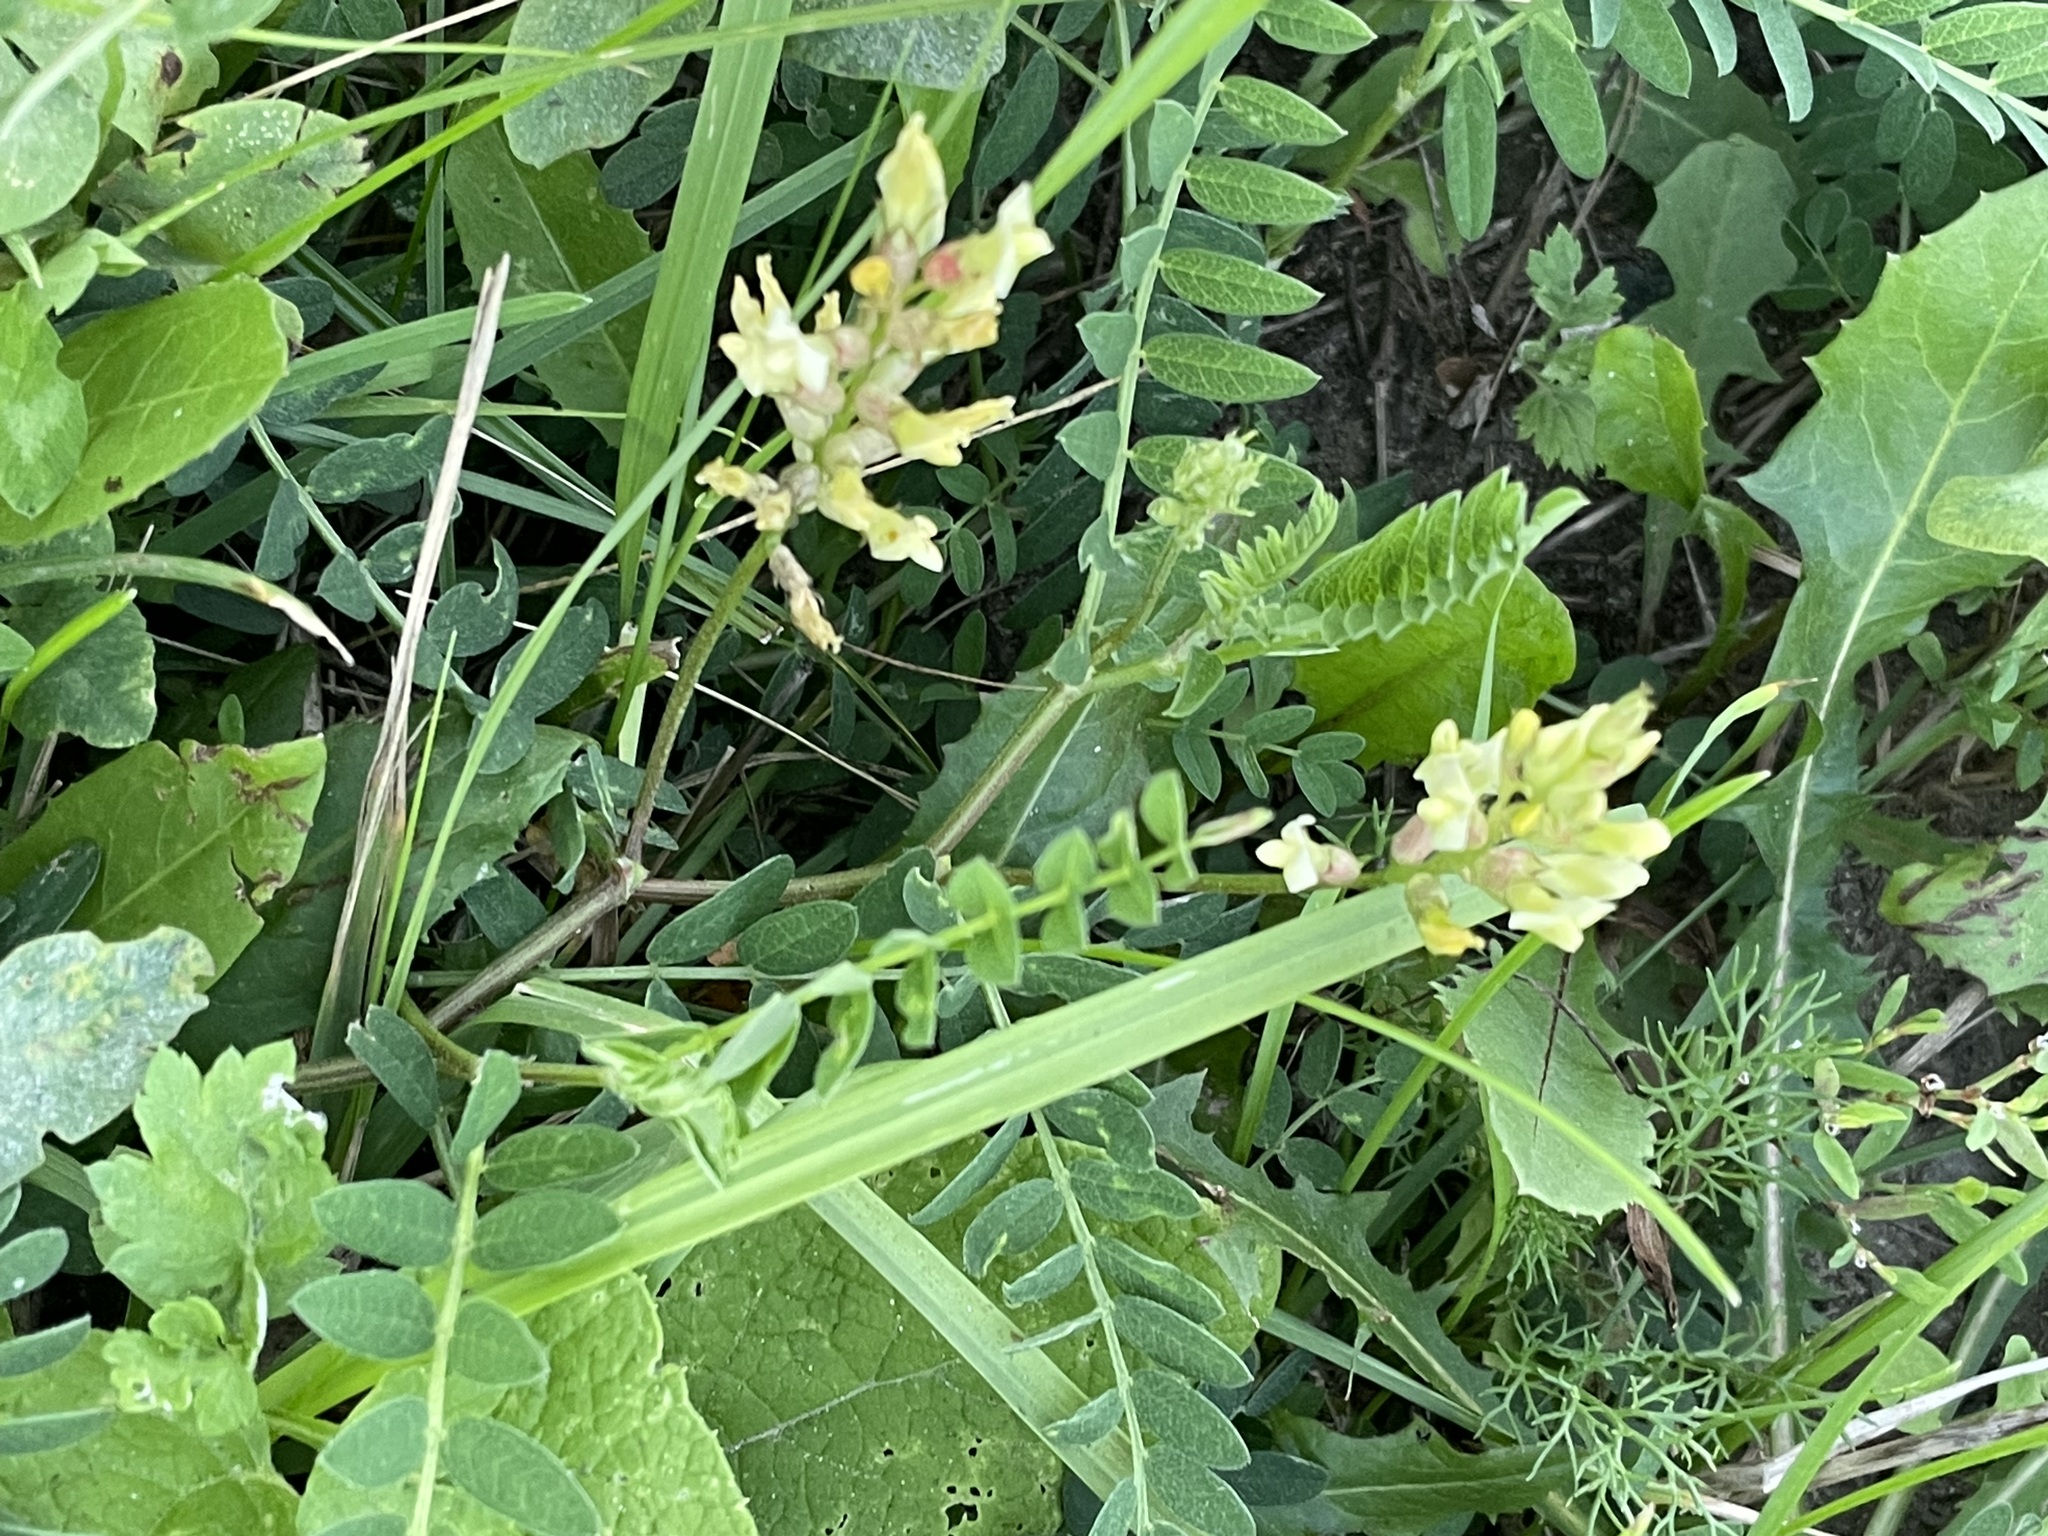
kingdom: Plantae
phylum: Tracheophyta
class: Magnoliopsida
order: Fabales
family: Fabaceae
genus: Astragalus
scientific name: Astragalus cicer
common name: Chick-pea milk-vetch
